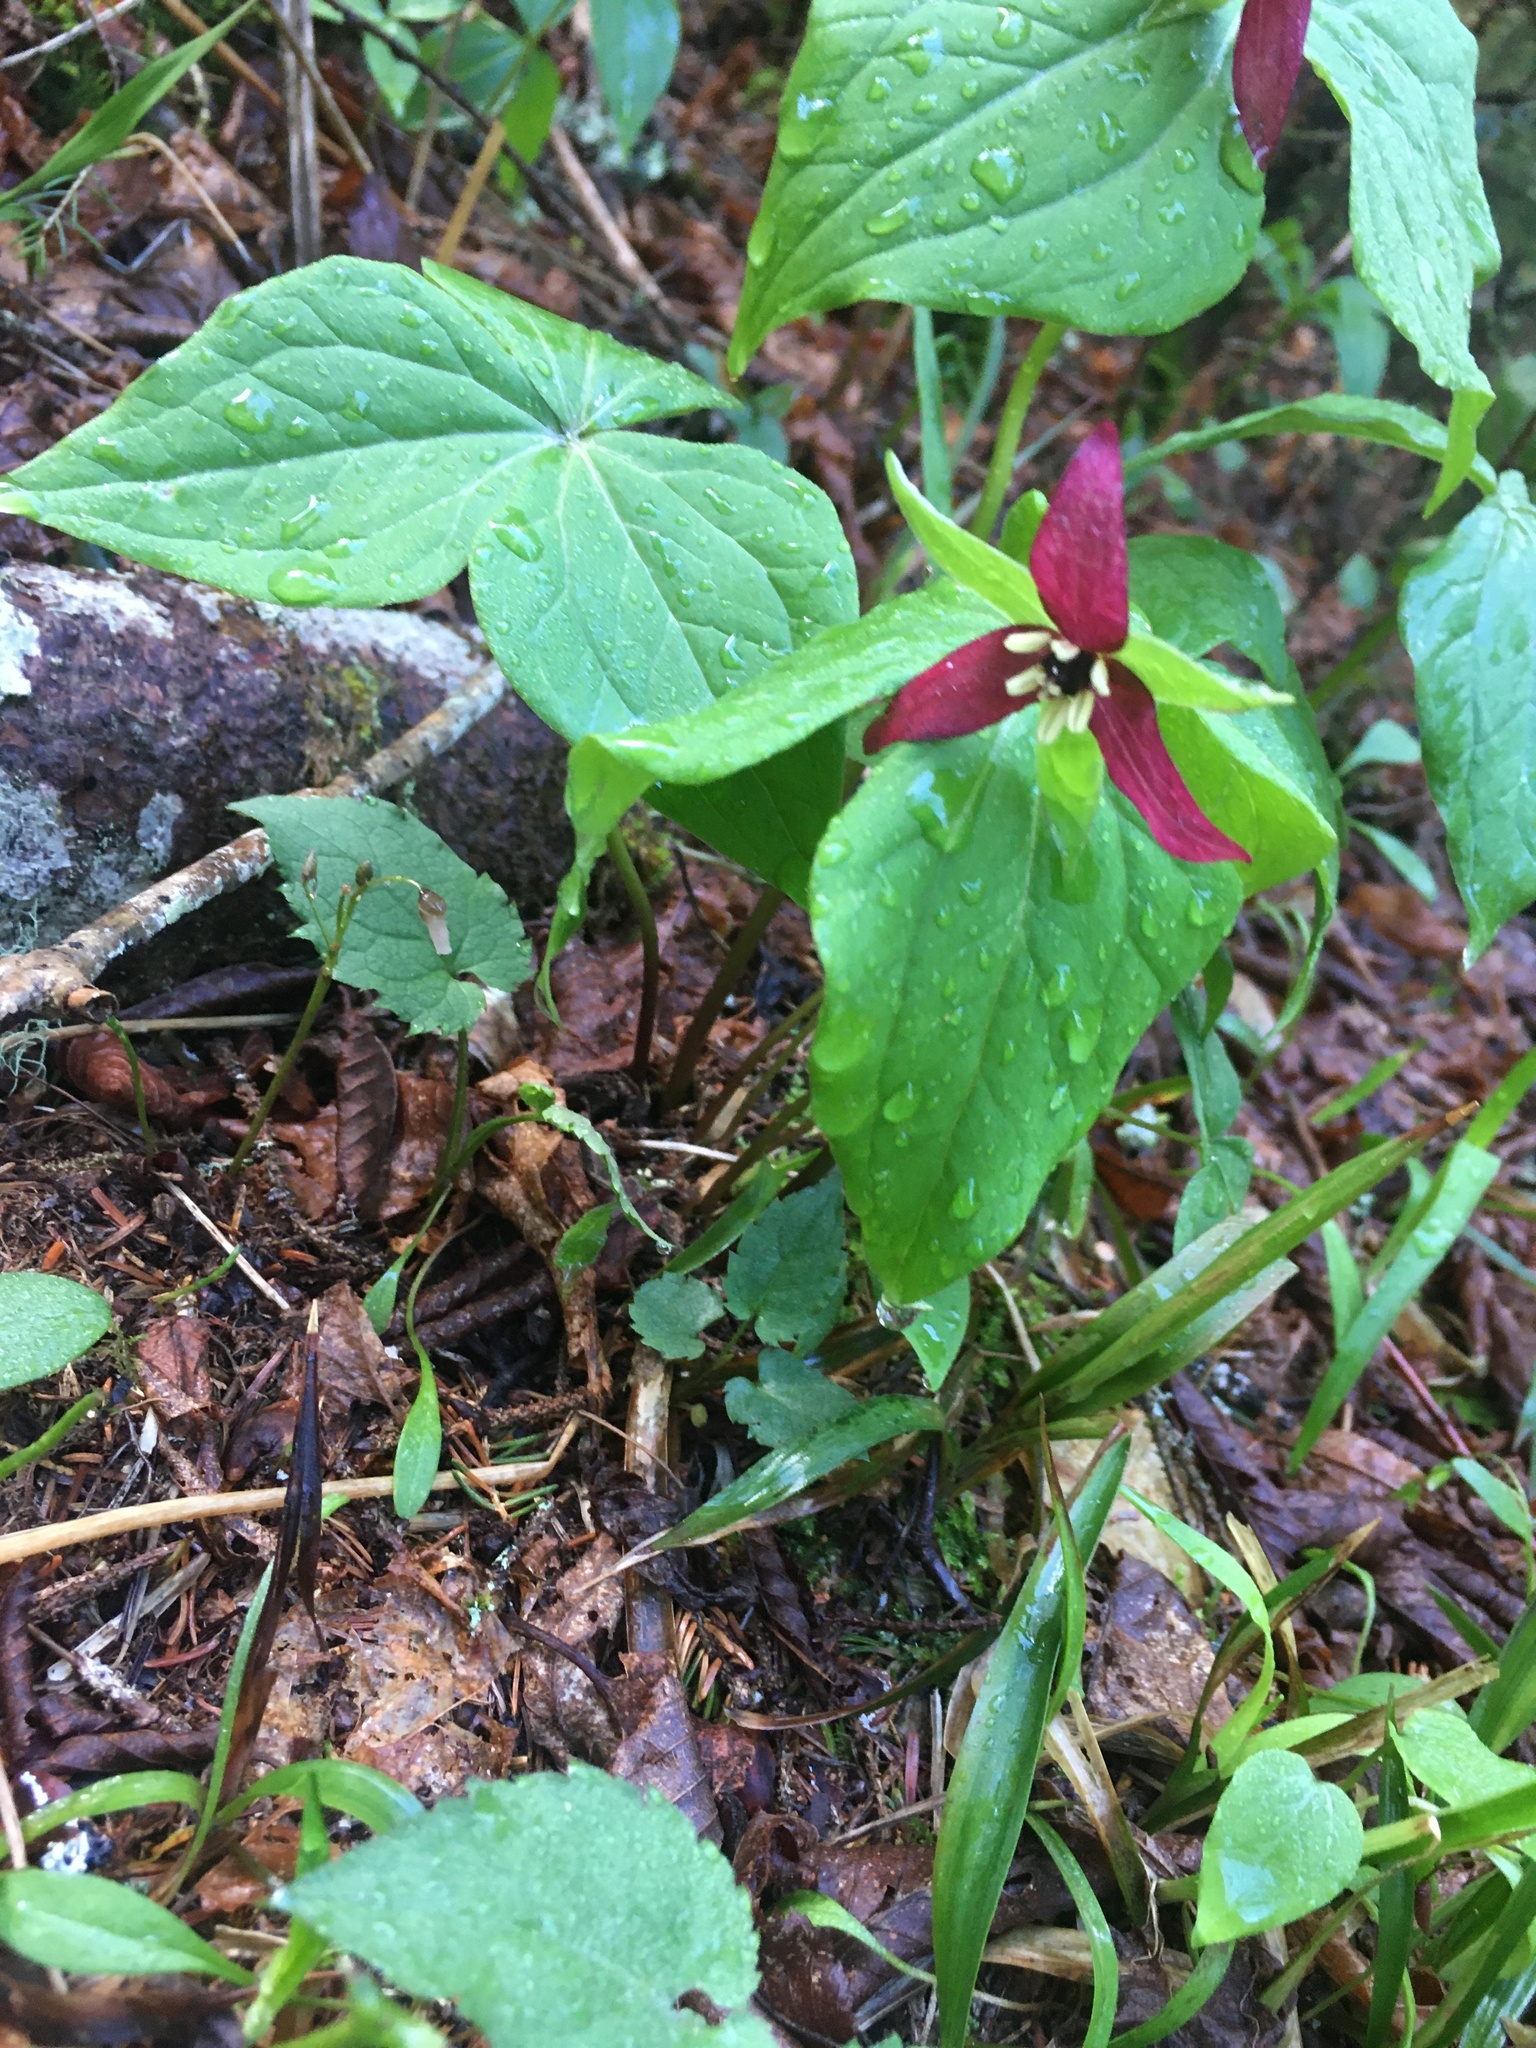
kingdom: Plantae
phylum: Tracheophyta
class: Liliopsida
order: Liliales
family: Melanthiaceae
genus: Trillium
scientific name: Trillium erectum
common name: Purple trillium
